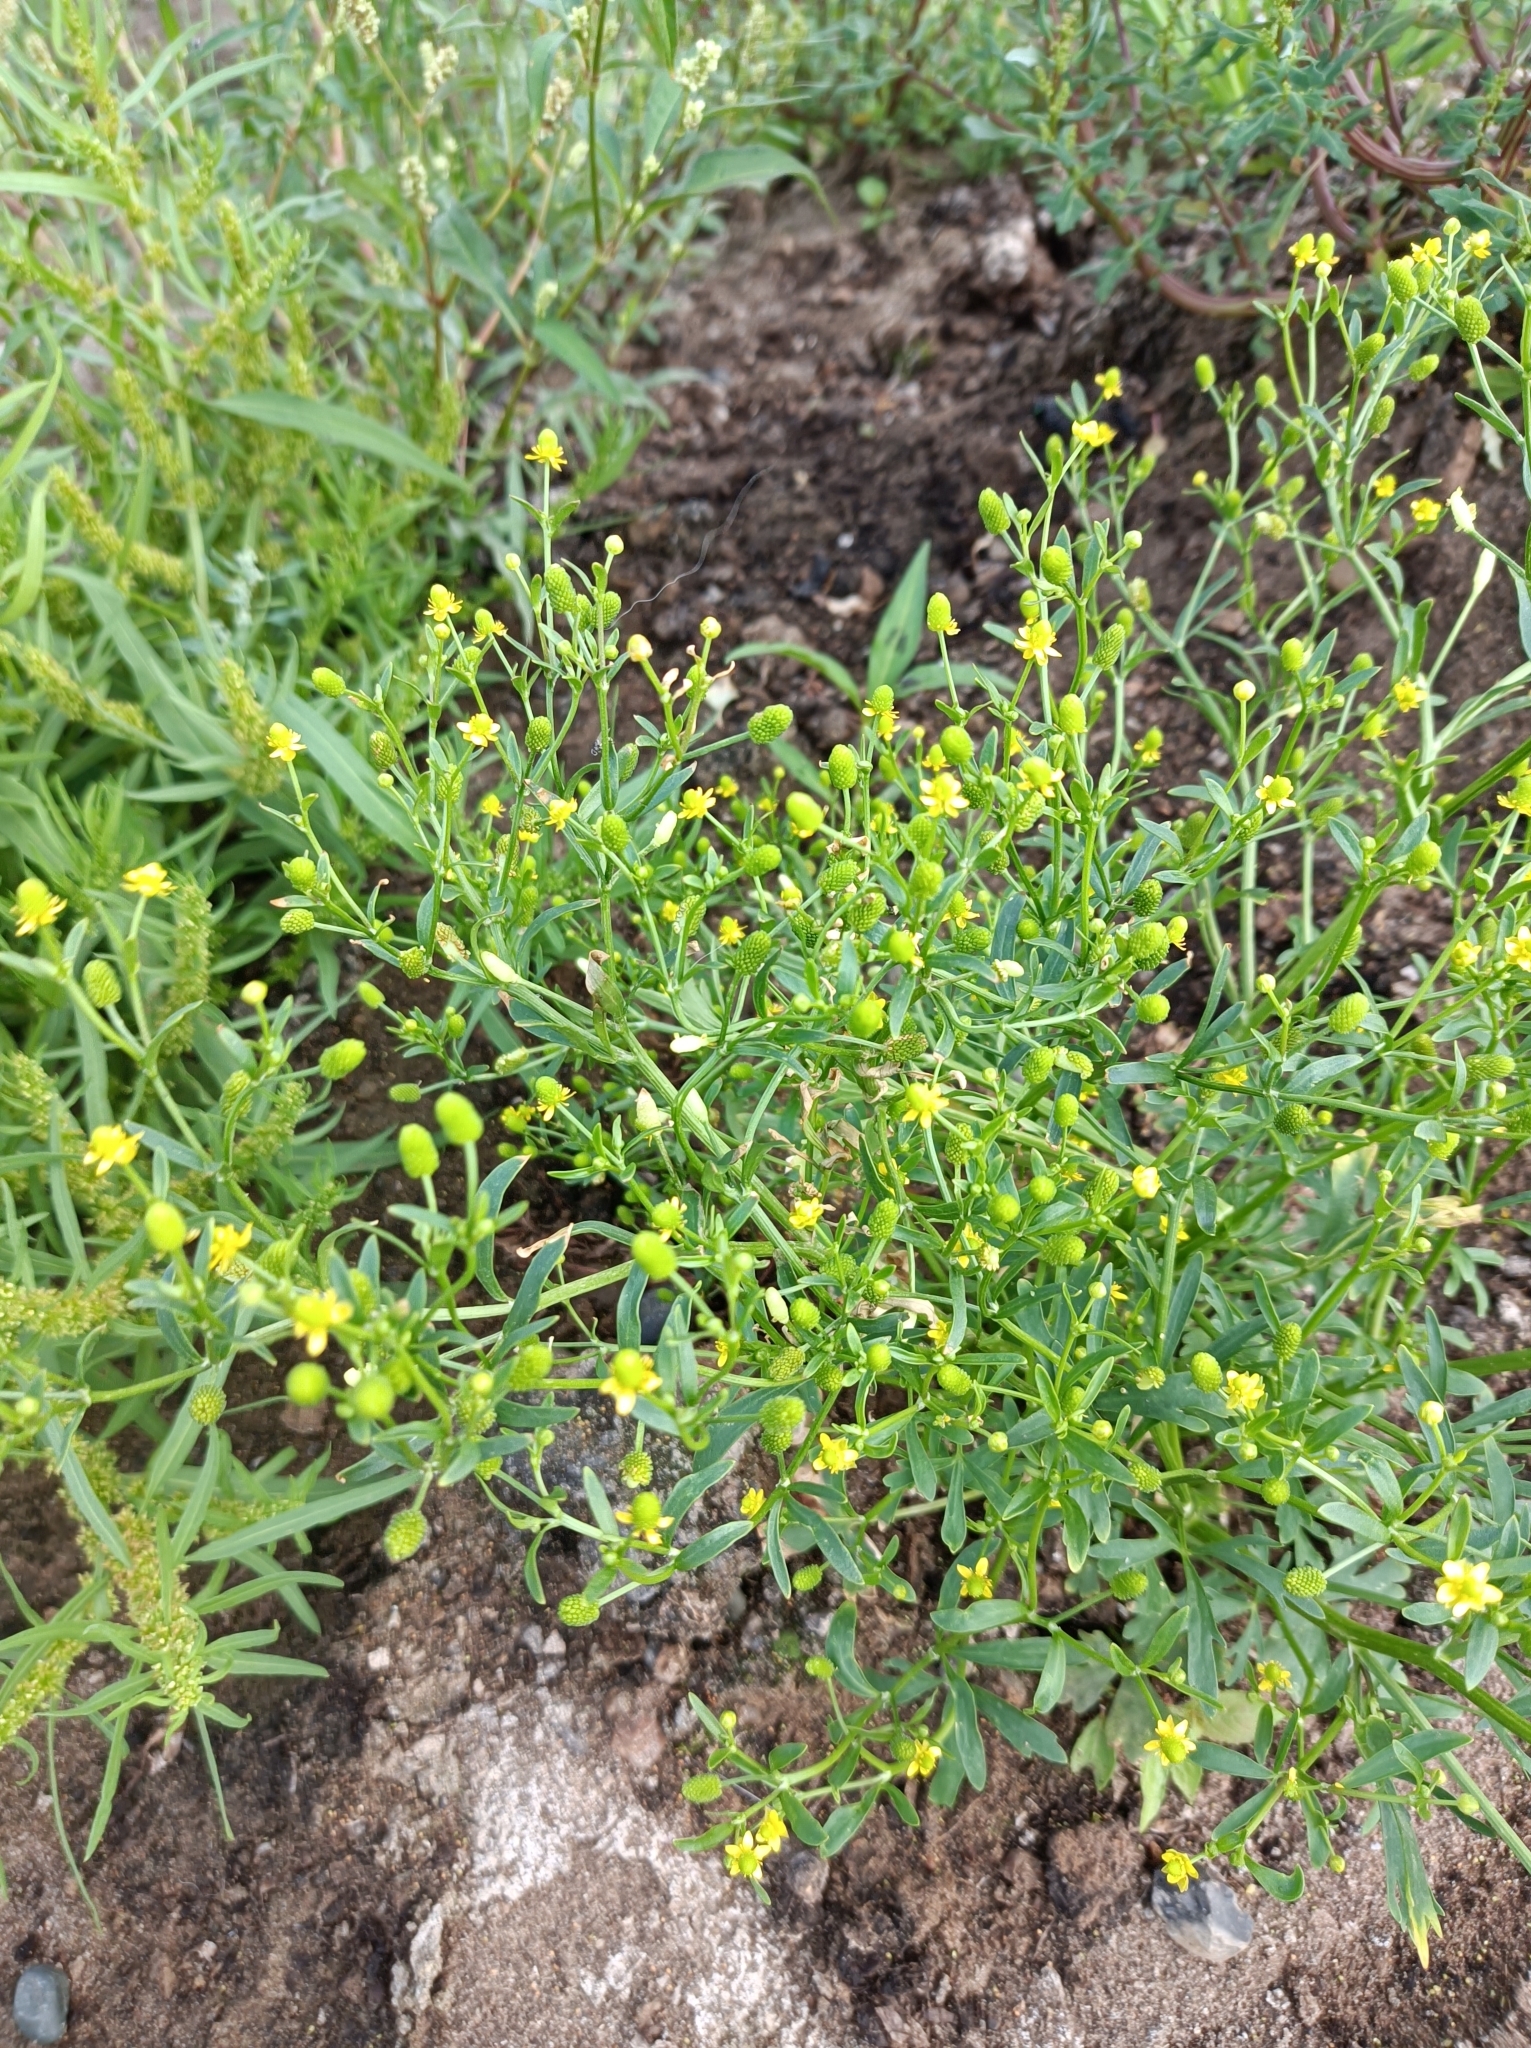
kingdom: Plantae
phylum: Tracheophyta
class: Magnoliopsida
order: Ranunculales
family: Ranunculaceae
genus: Ranunculus
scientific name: Ranunculus sceleratus
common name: Celery-leaved buttercup
